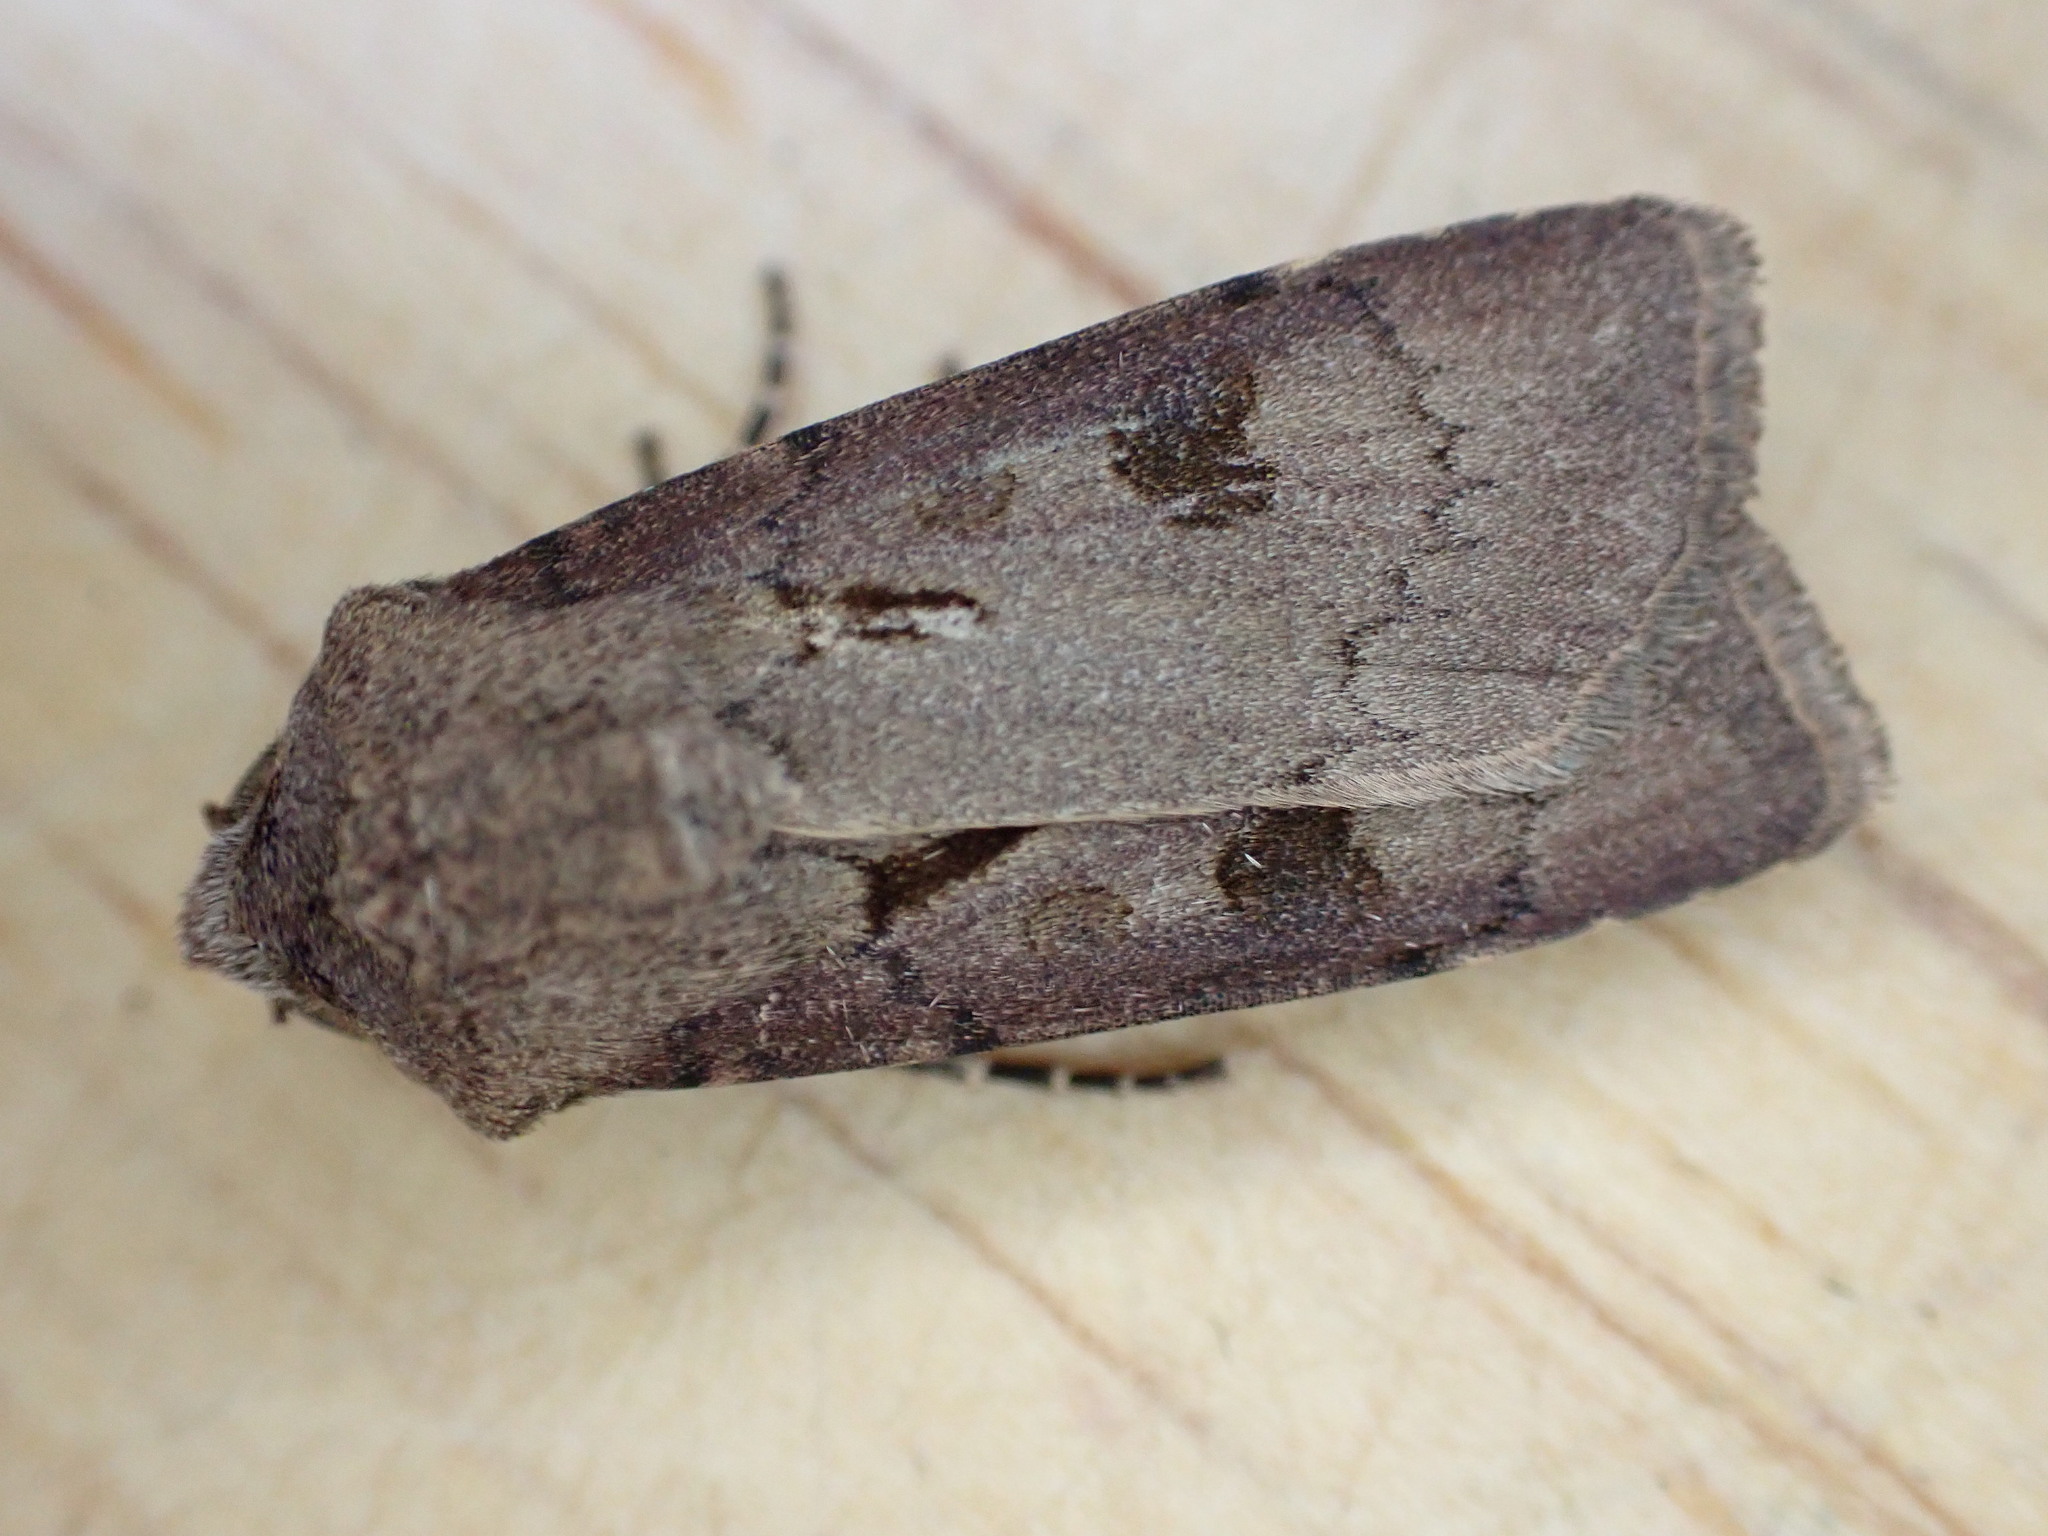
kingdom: Animalia
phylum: Arthropoda
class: Insecta
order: Lepidoptera
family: Noctuidae
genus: Agrotis
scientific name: Agrotis exclamationis
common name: Heart and dart
